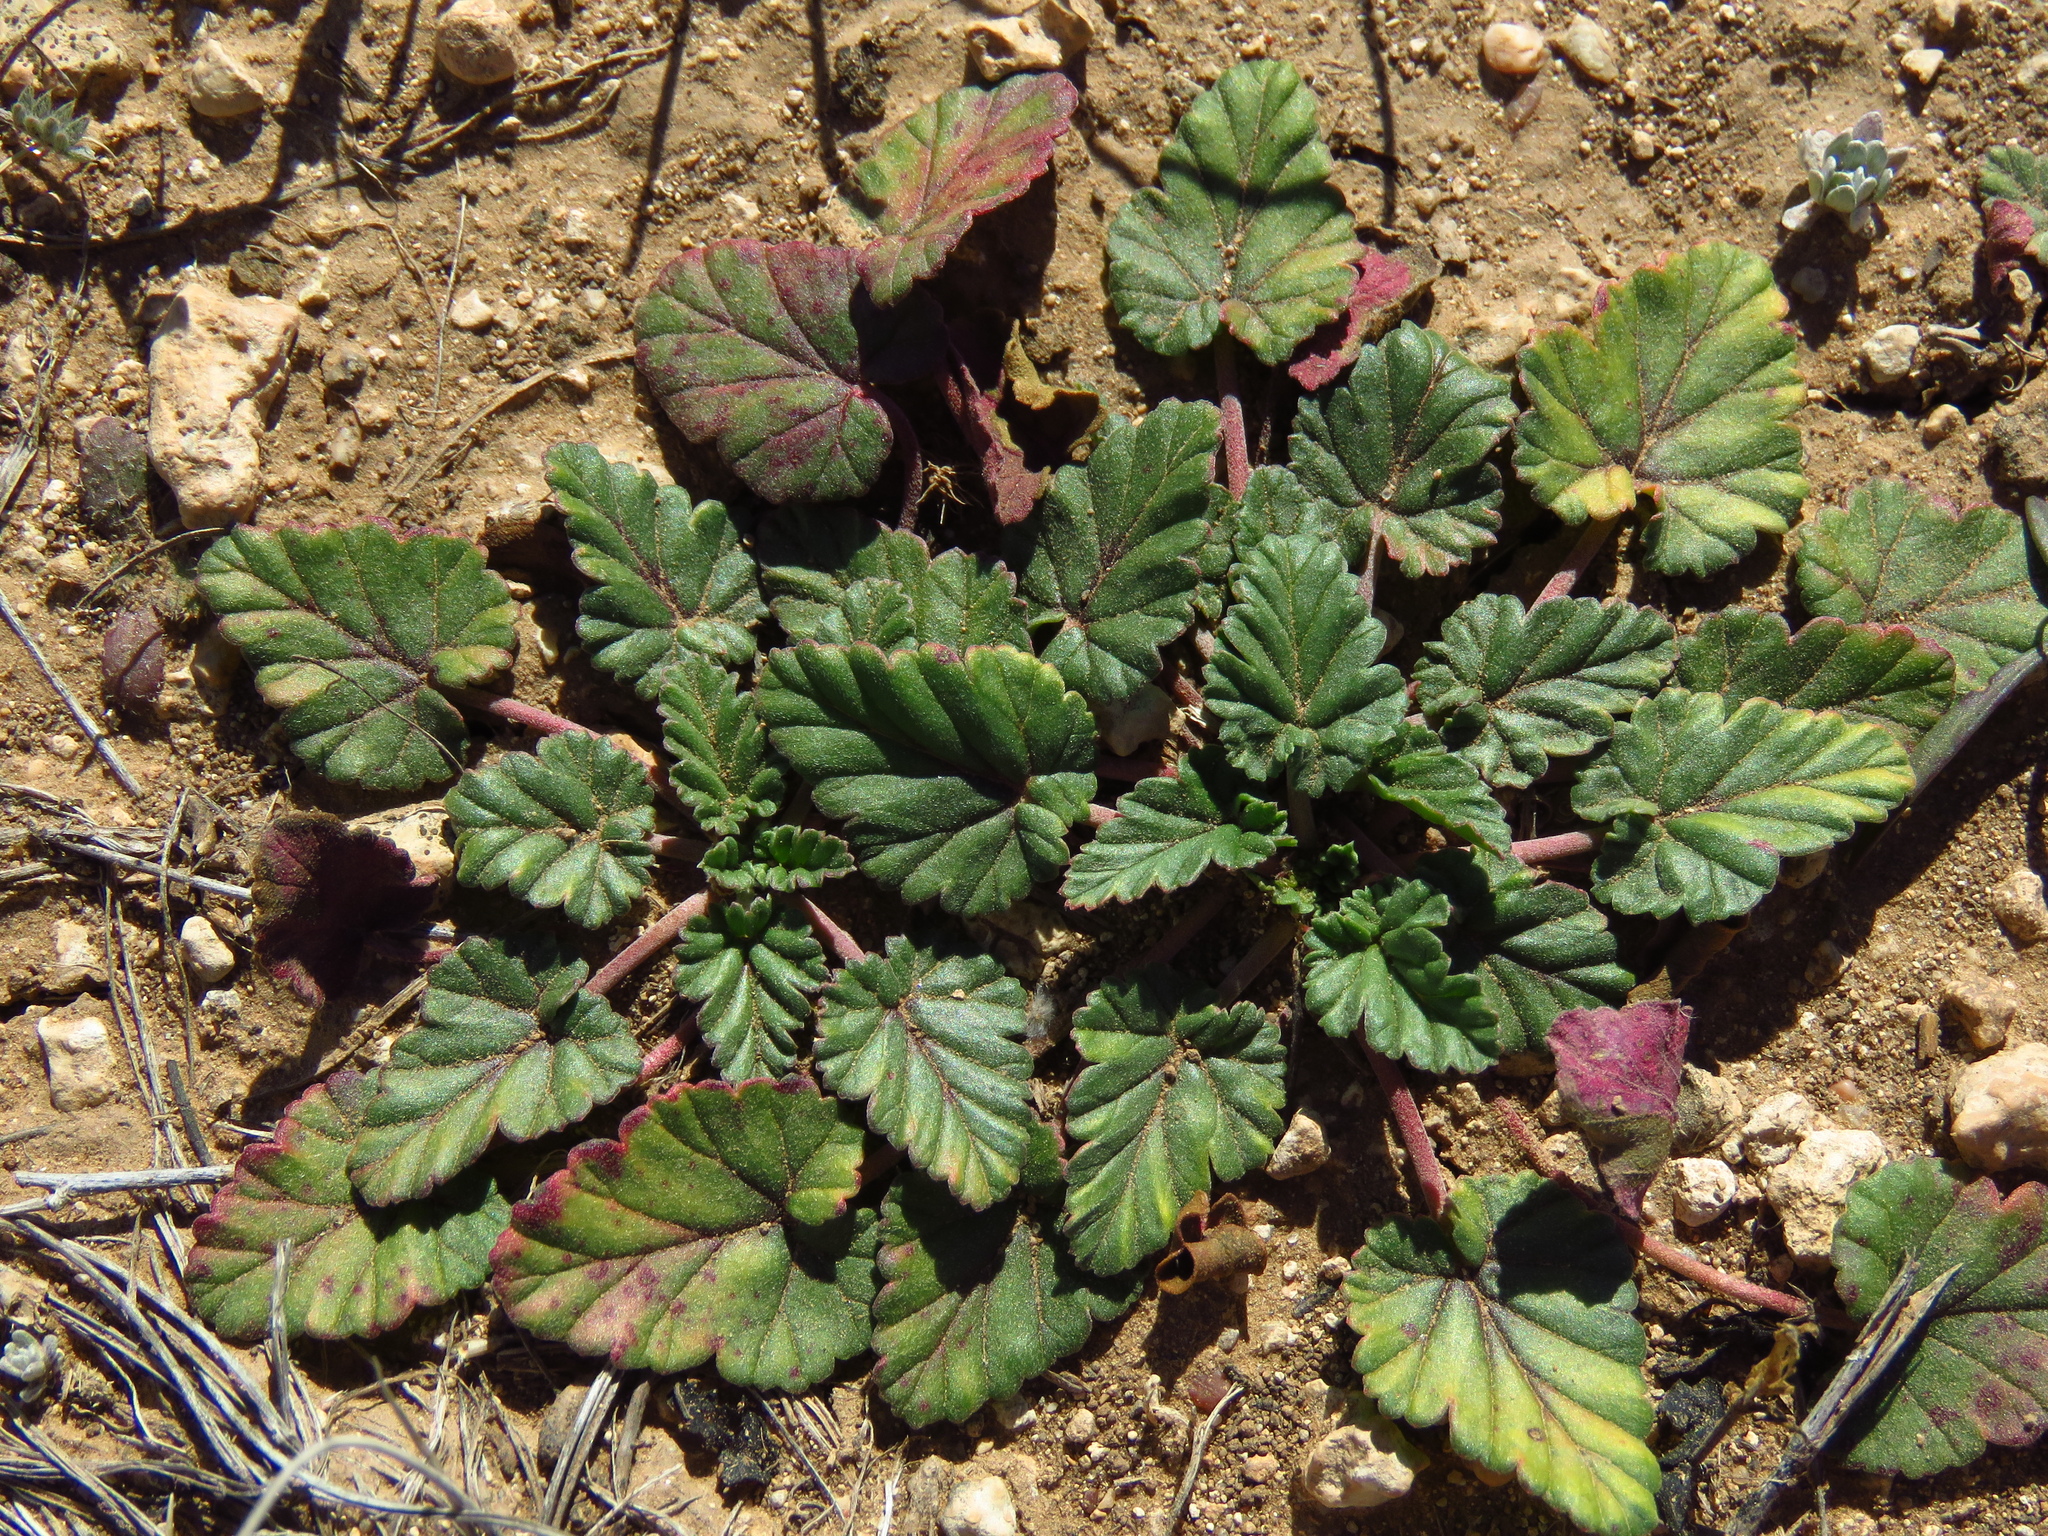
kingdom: Plantae
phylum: Tracheophyta
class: Magnoliopsida
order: Geraniales
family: Geraniaceae
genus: Erodium
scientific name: Erodium texanum
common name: Texas stork's-bill
